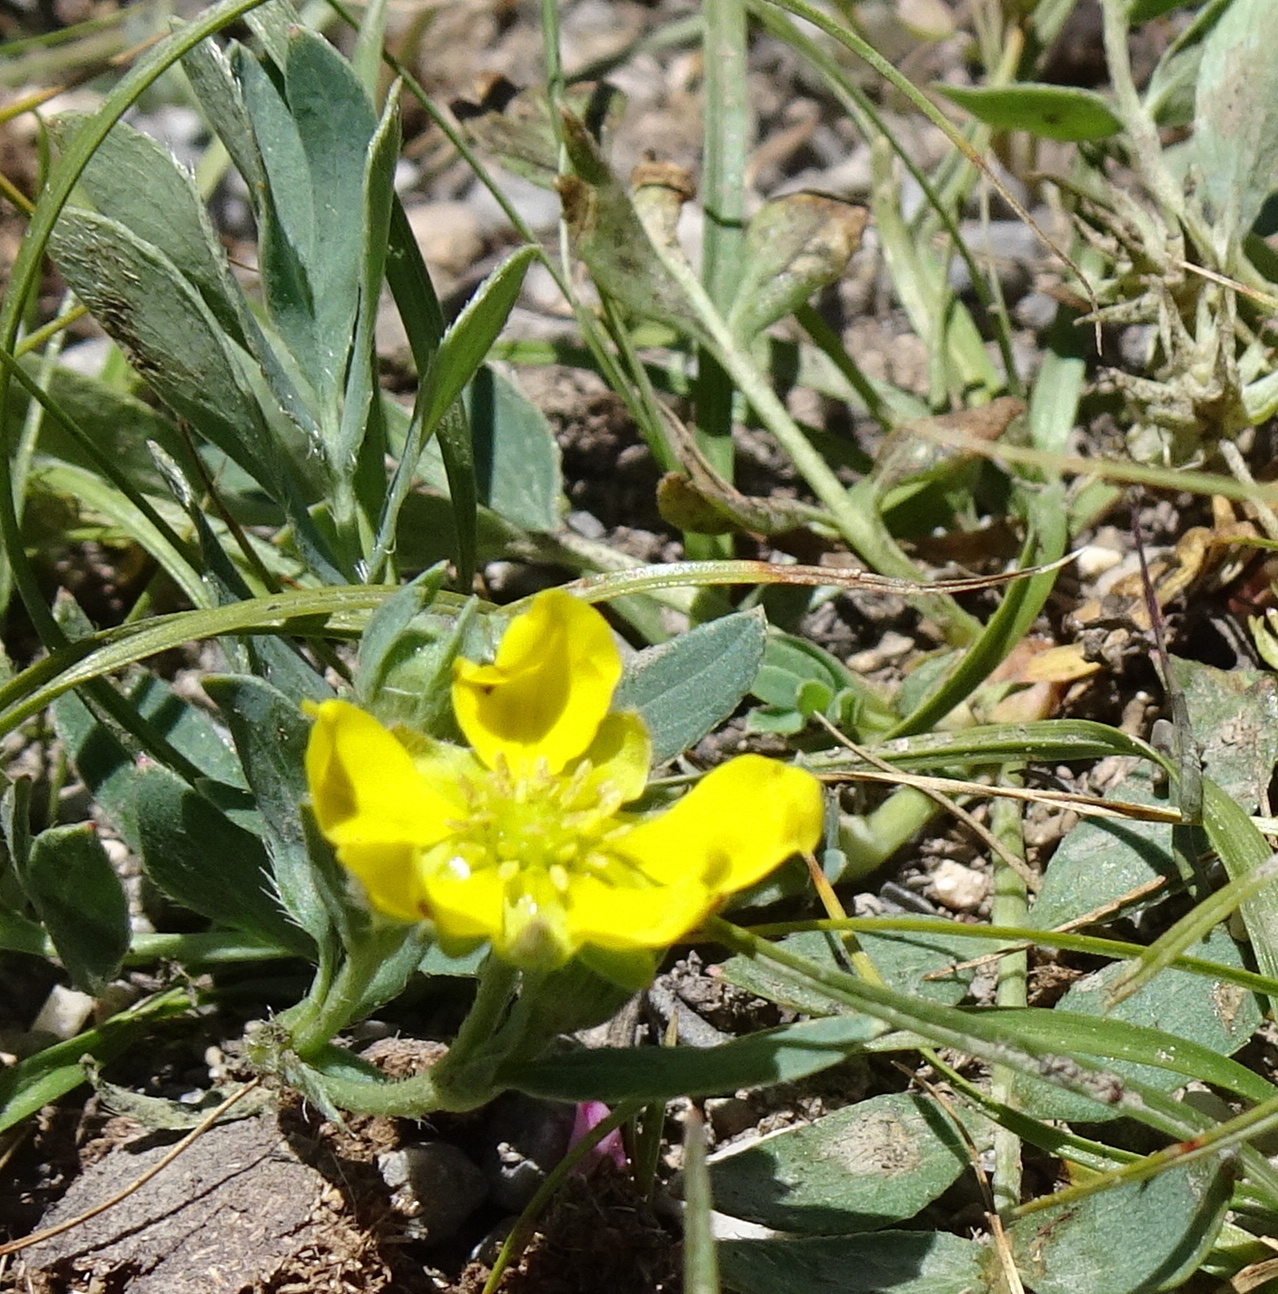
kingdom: Plantae
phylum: Tracheophyta
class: Magnoliopsida
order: Rosales
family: Rosaceae
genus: Sibbaldianthe
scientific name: Sibbaldianthe bifurca
